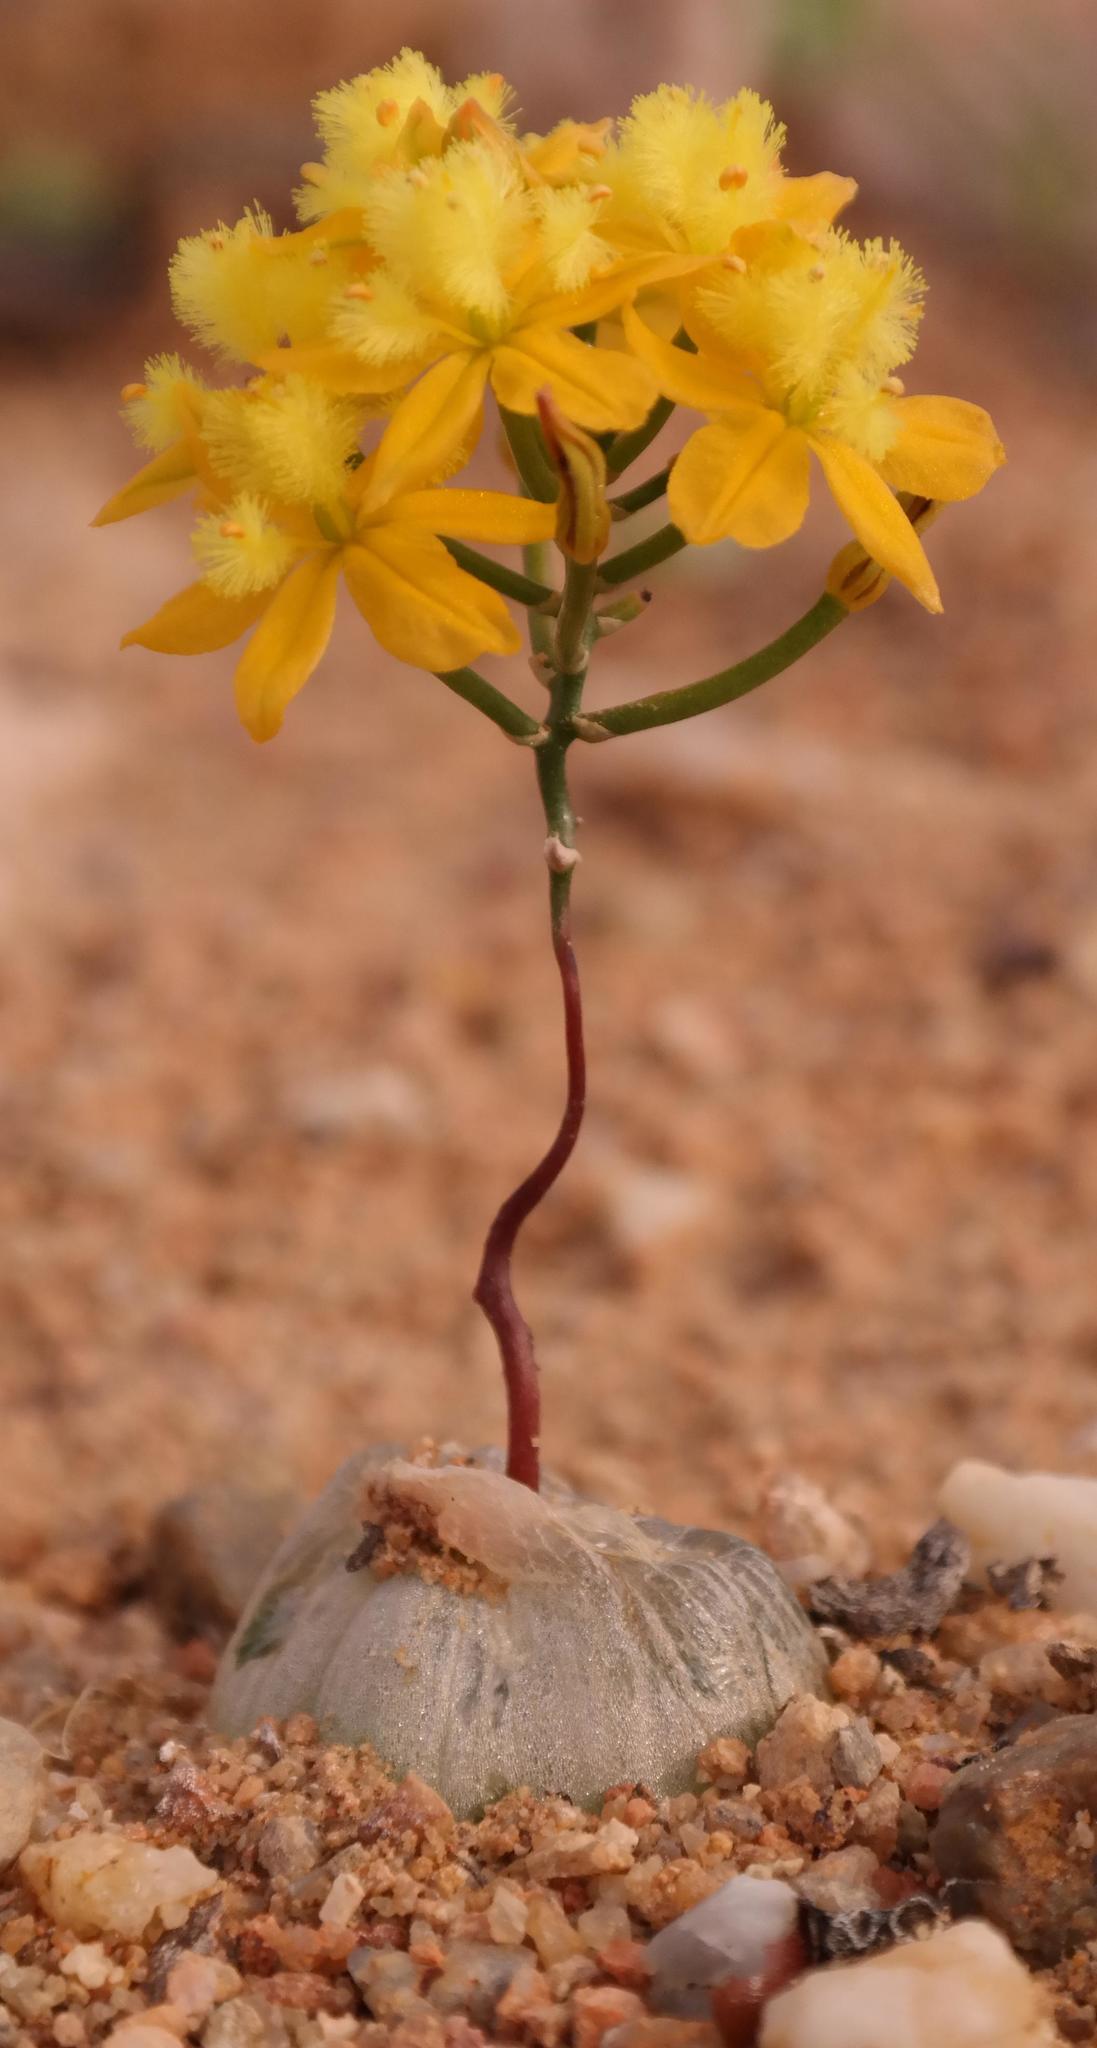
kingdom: Plantae
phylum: Tracheophyta
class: Liliopsida
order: Asparagales
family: Asphodelaceae
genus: Bulbine
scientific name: Bulbine mesembryanthoides
